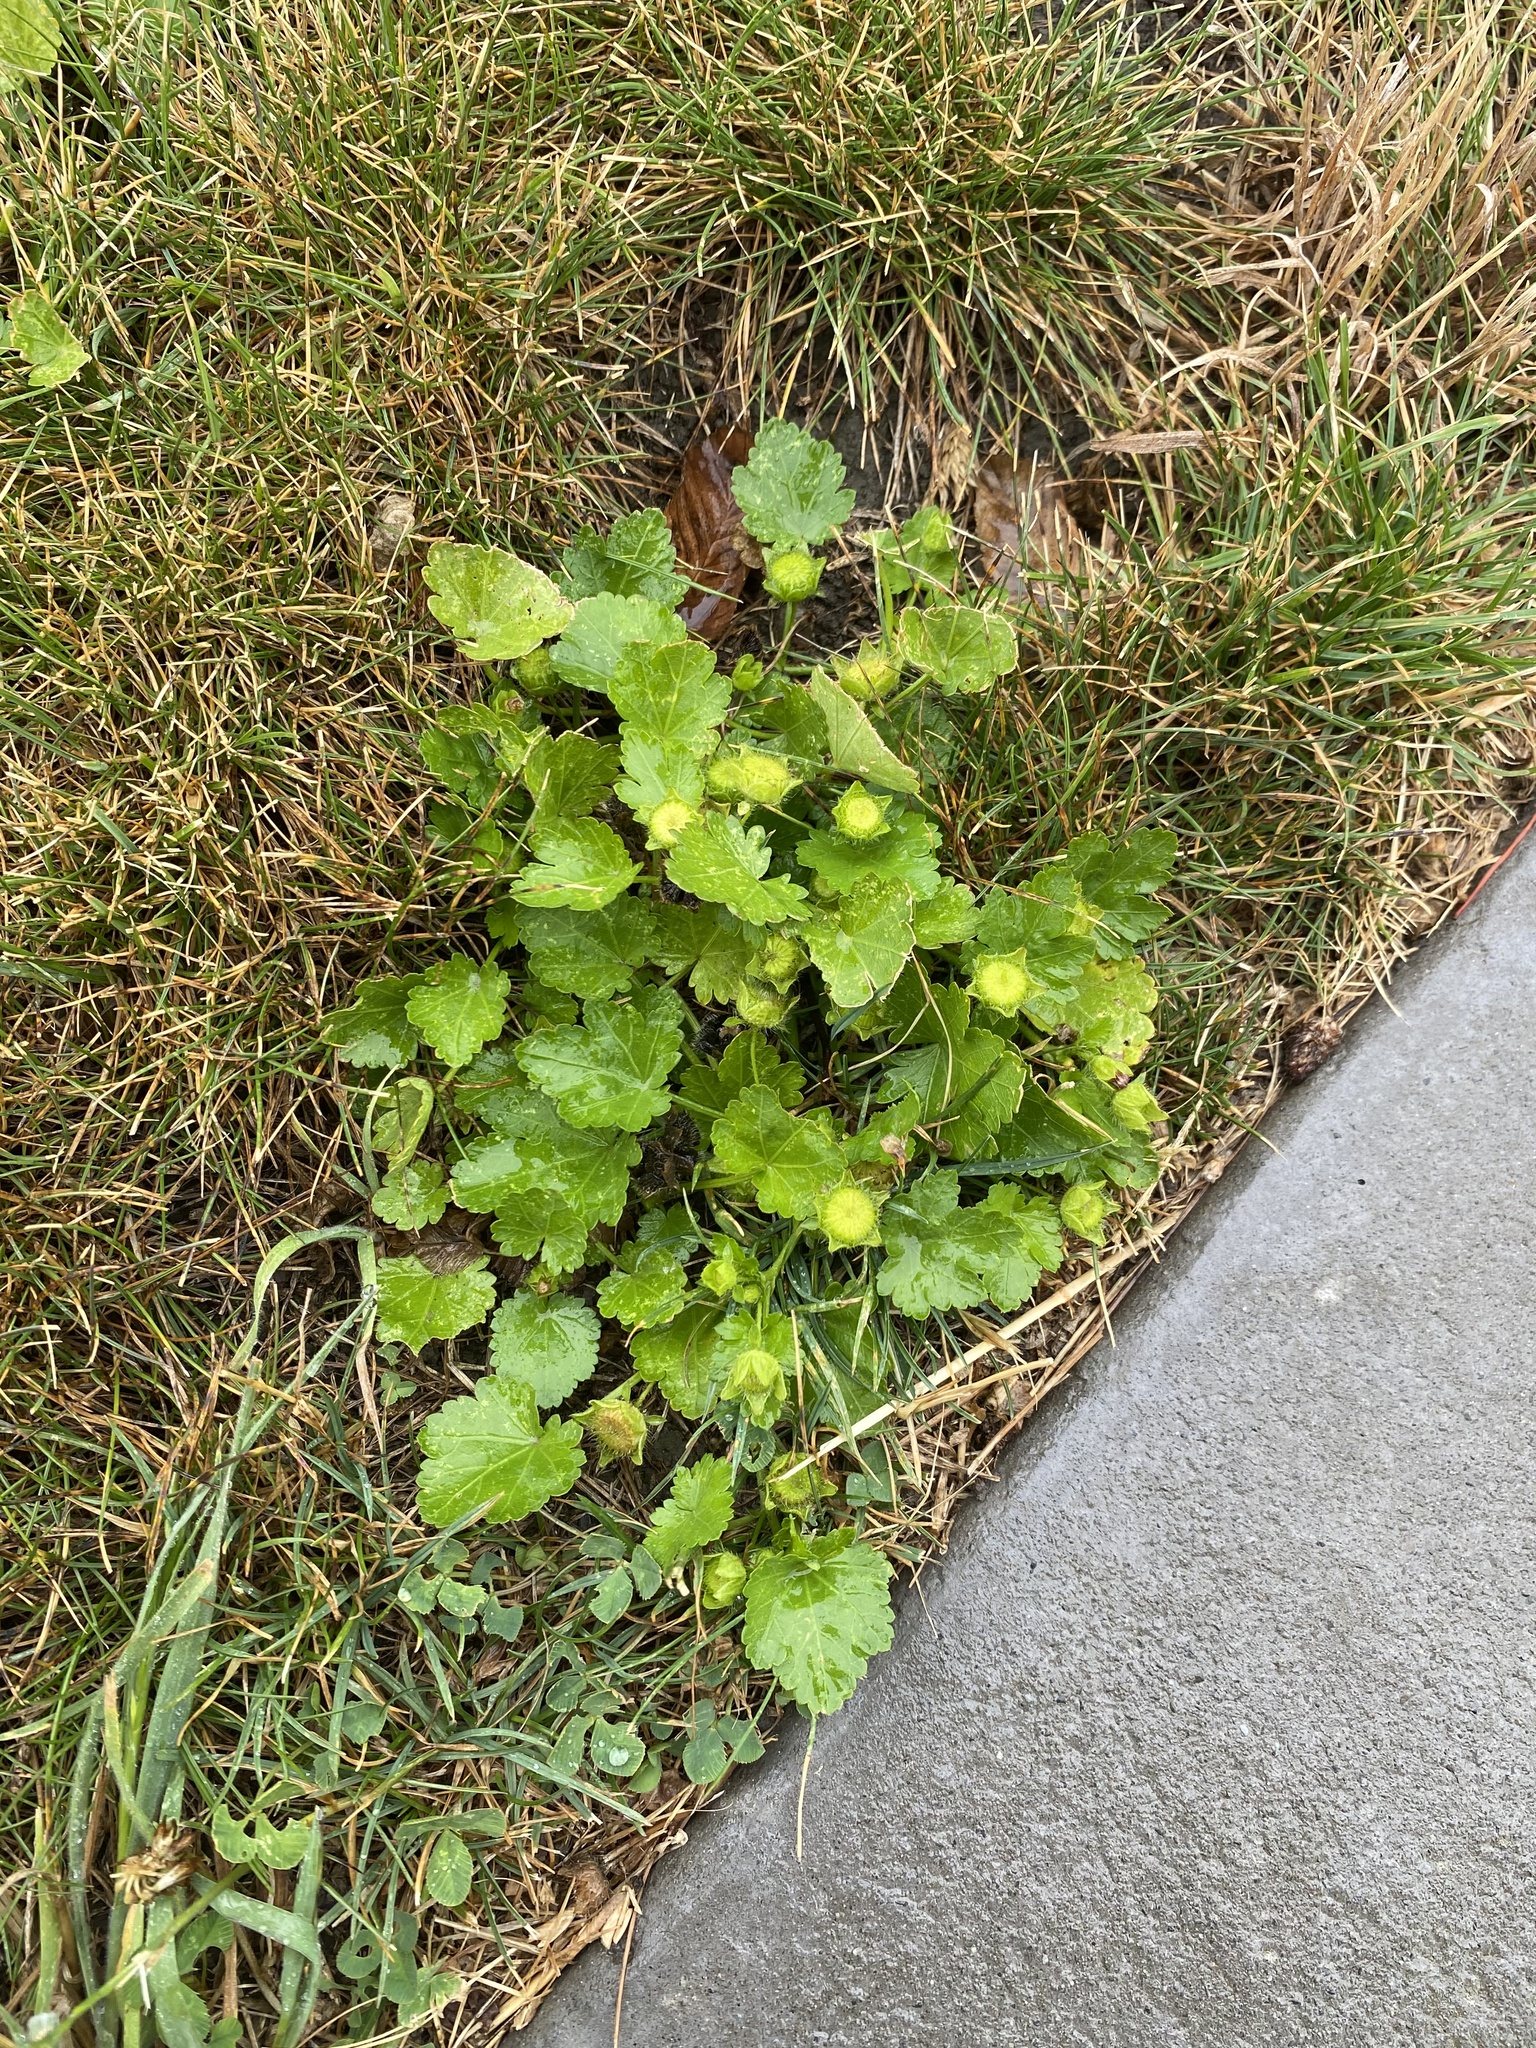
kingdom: Plantae
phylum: Tracheophyta
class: Magnoliopsida
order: Malvales
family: Malvaceae
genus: Modiola
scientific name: Modiola caroliniana
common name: Carolina bristlemallow
